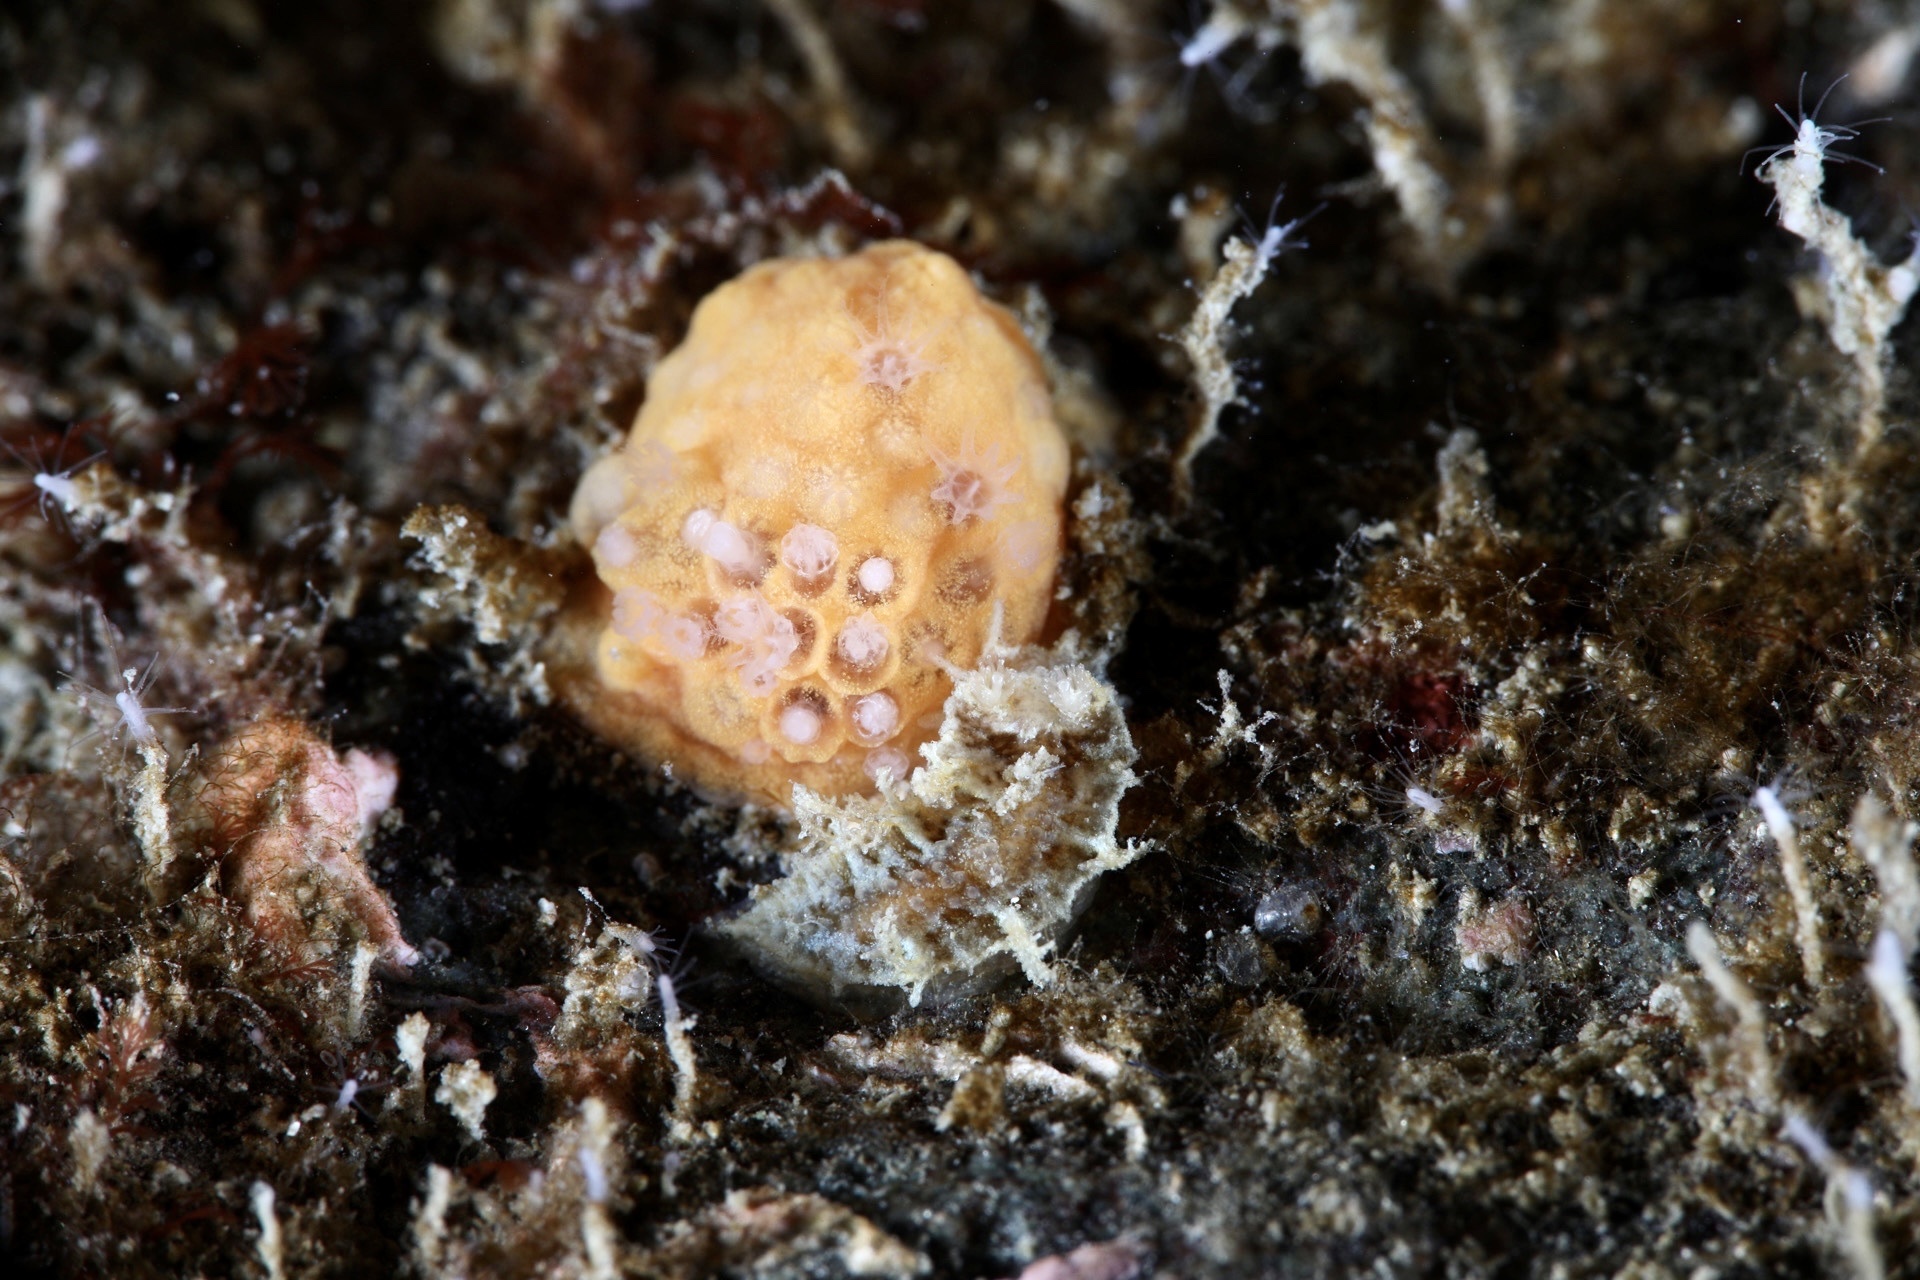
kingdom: Animalia
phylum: Mollusca
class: Gastropoda
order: Nudibranchia
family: Tritoniidae
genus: Duvaucelia
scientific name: Duvaucelia plebeia
